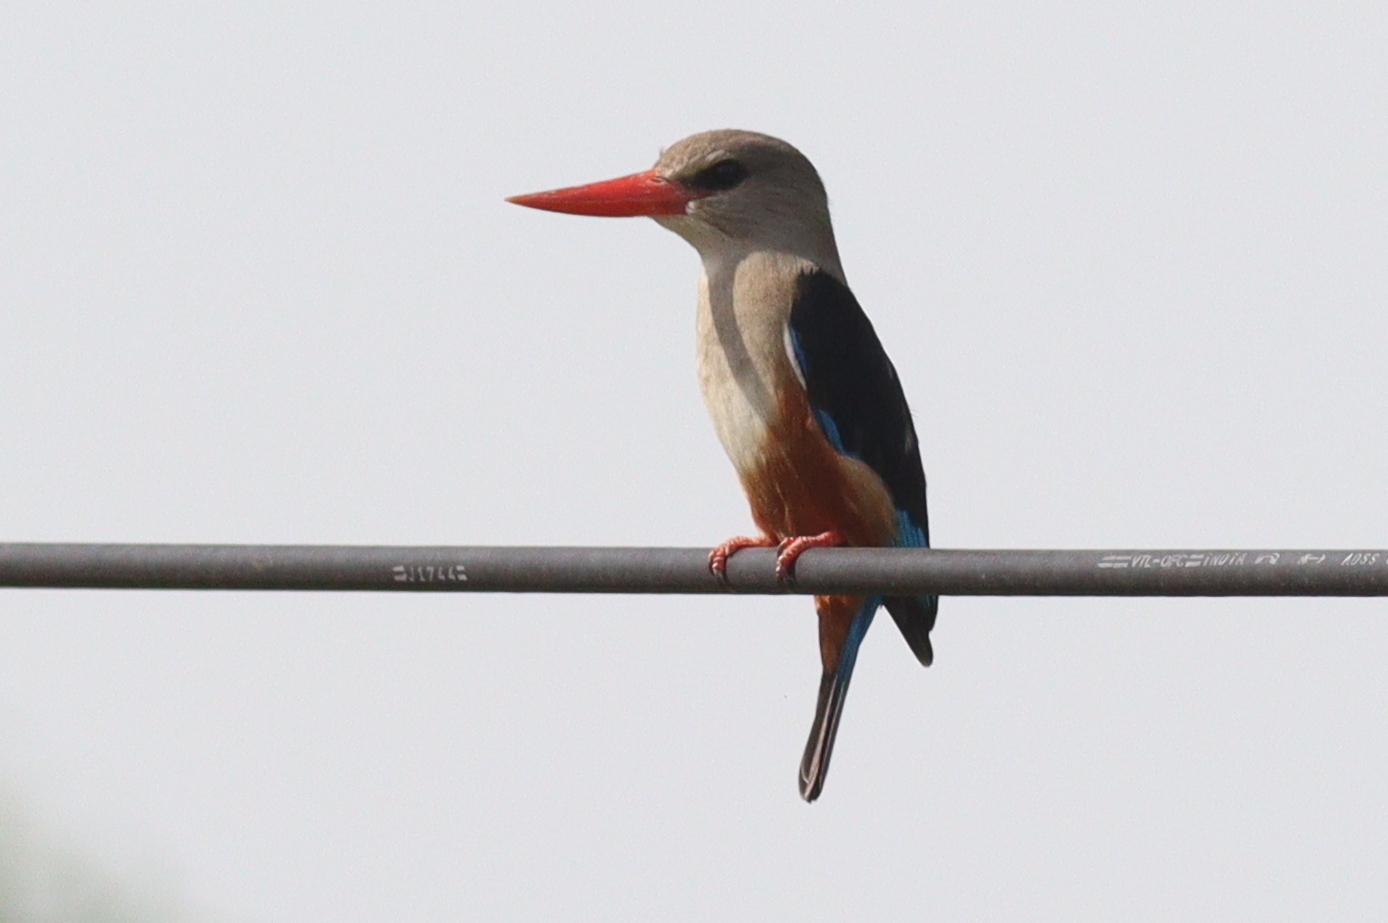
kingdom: Animalia
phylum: Chordata
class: Aves
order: Coraciiformes
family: Alcedinidae
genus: Halcyon
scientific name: Halcyon leucocephala
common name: Grey-headed kingfisher
